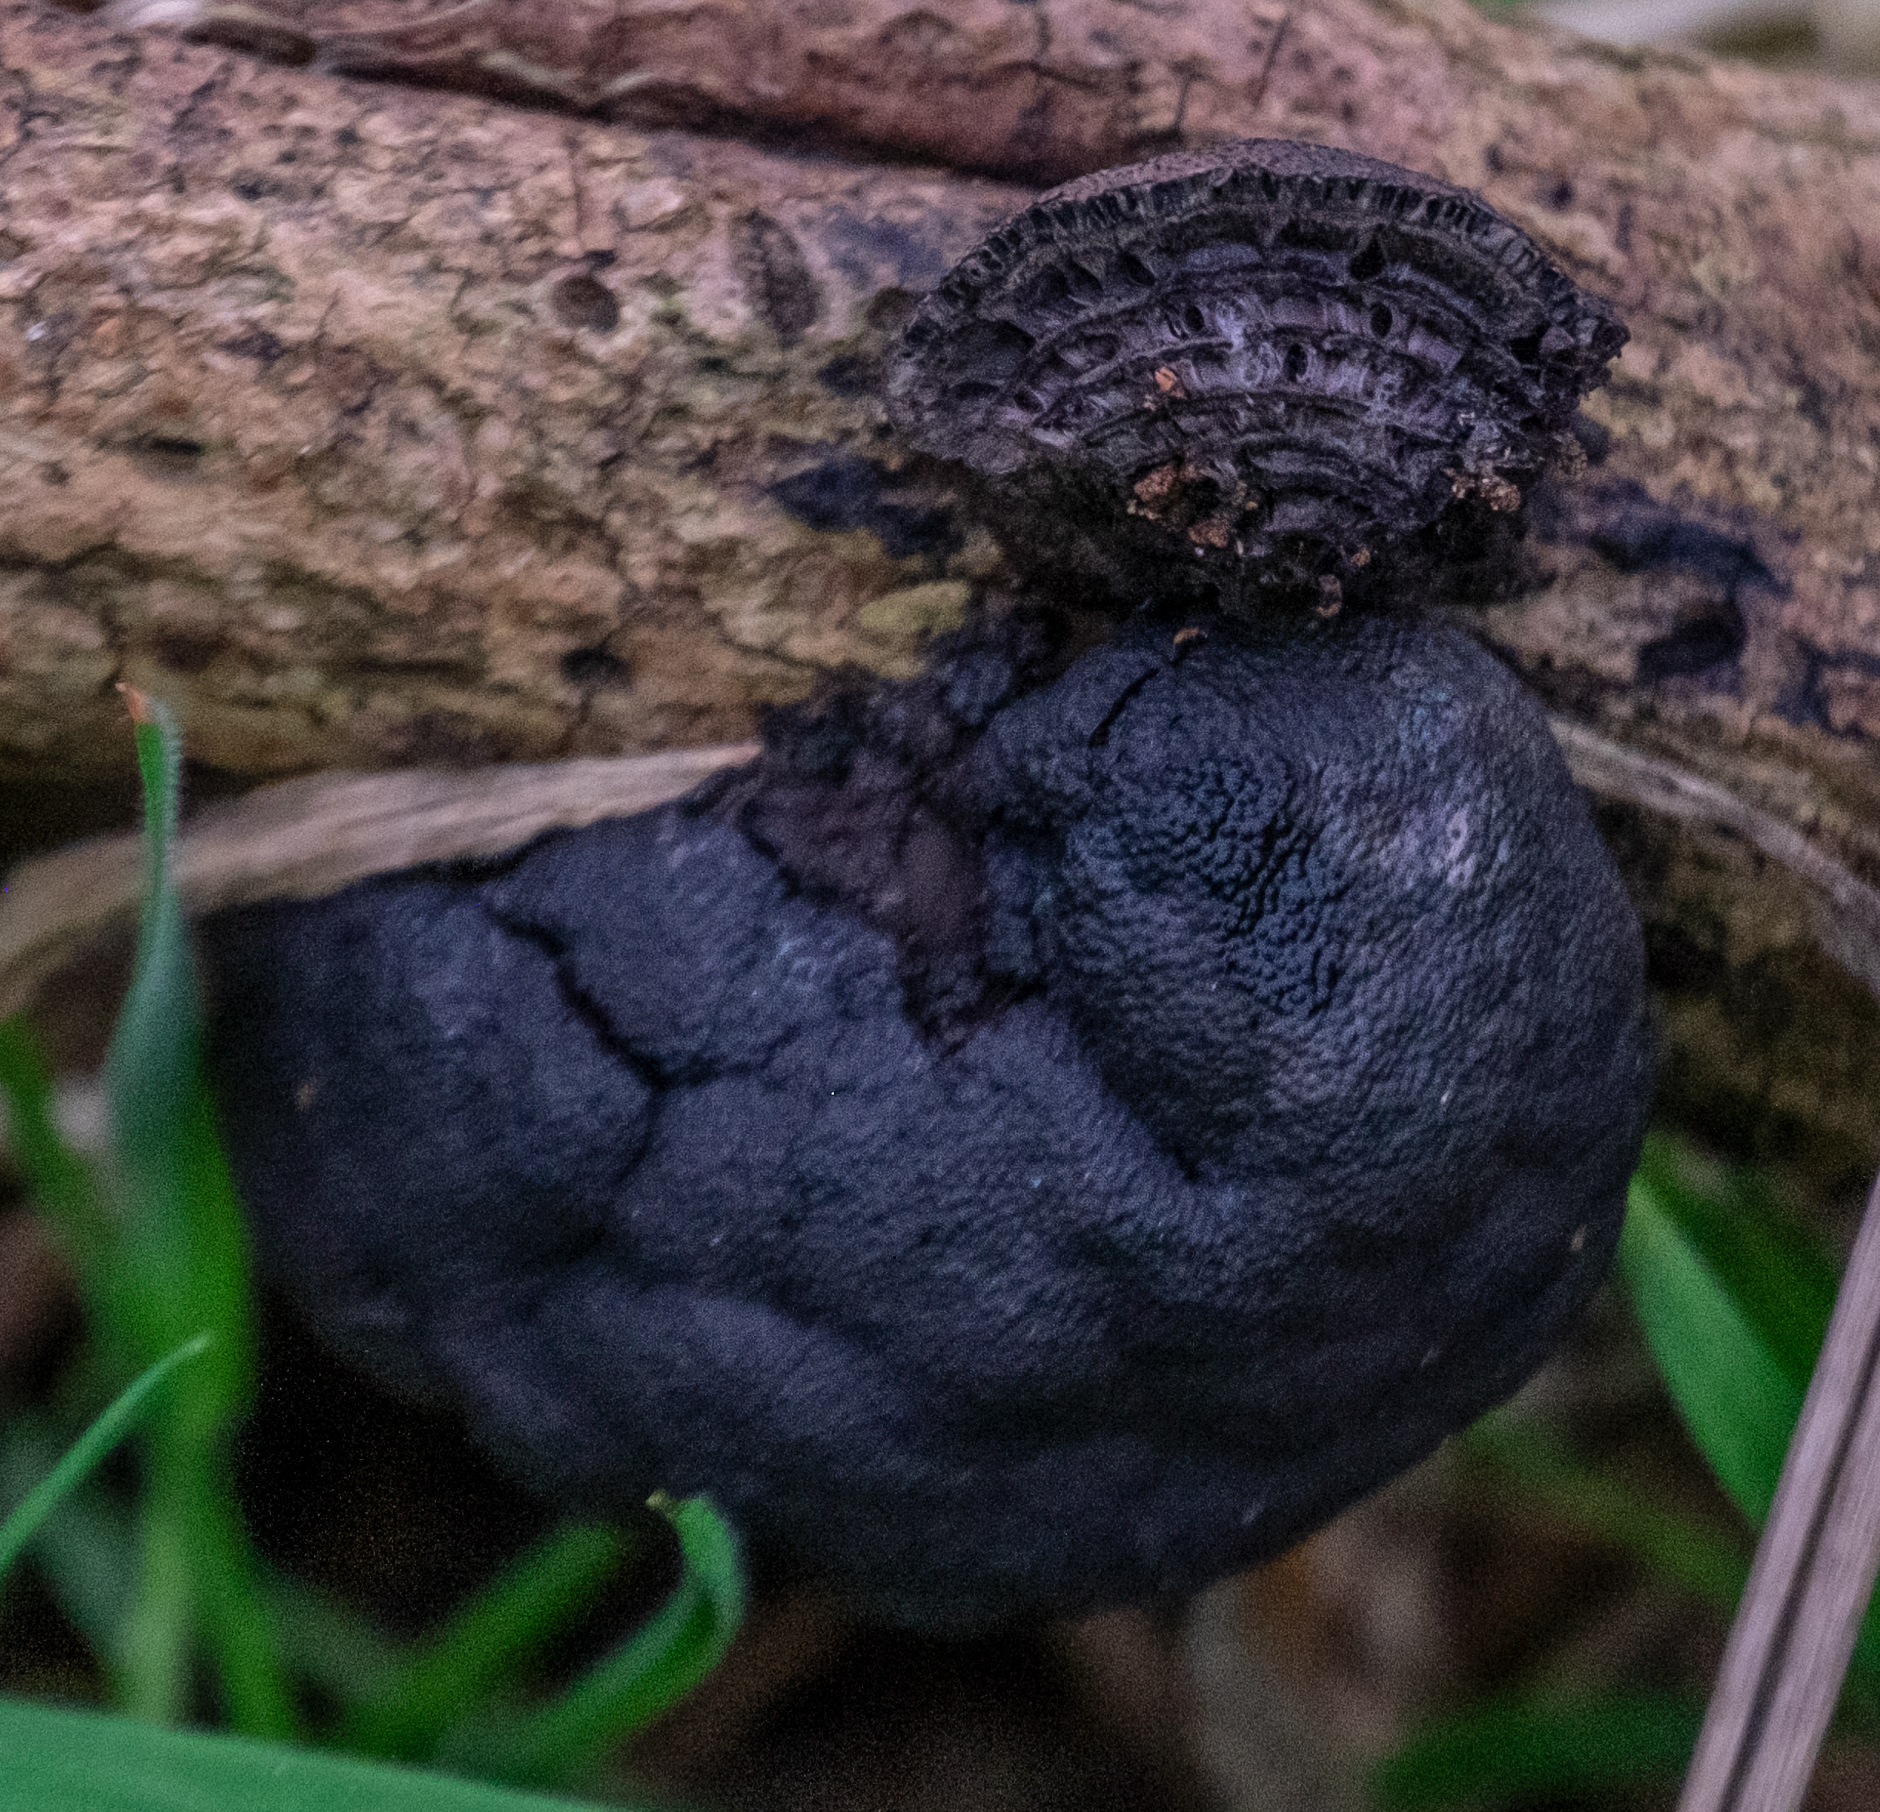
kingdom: Fungi
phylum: Ascomycota
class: Sordariomycetes
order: Xylariales
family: Hypoxylaceae
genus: Daldinia
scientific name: Daldinia concentrica
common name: Cramp balls
